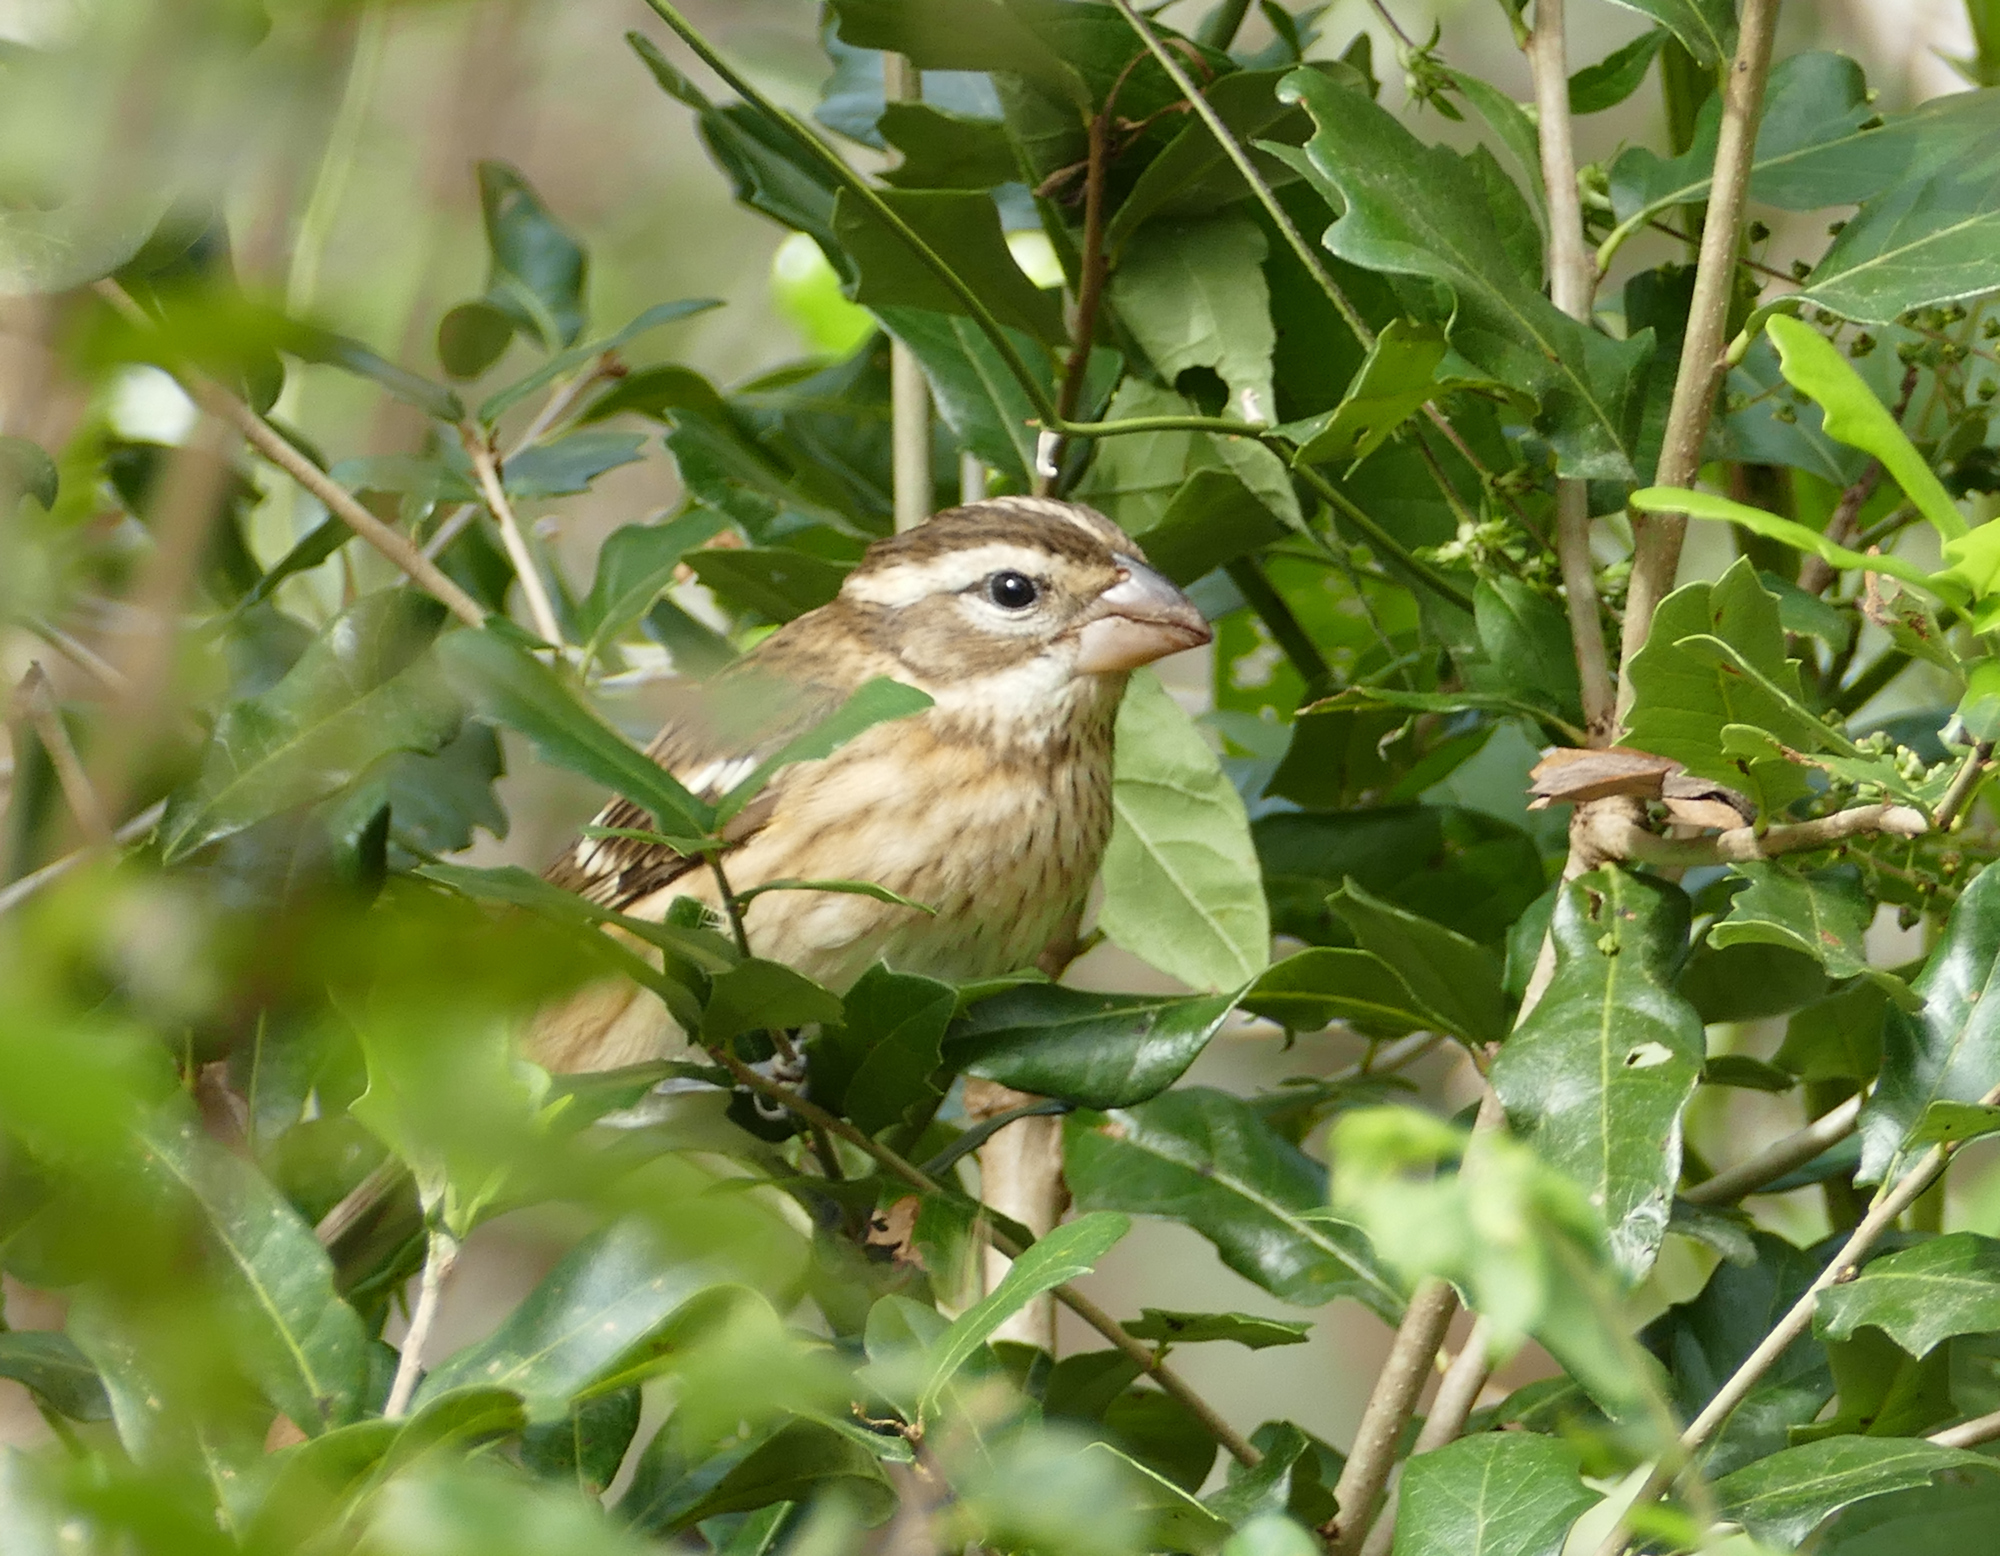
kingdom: Animalia
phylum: Chordata
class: Aves
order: Passeriformes
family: Cardinalidae
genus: Pheucticus
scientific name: Pheucticus ludovicianus
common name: Rose-breasted grosbeak
